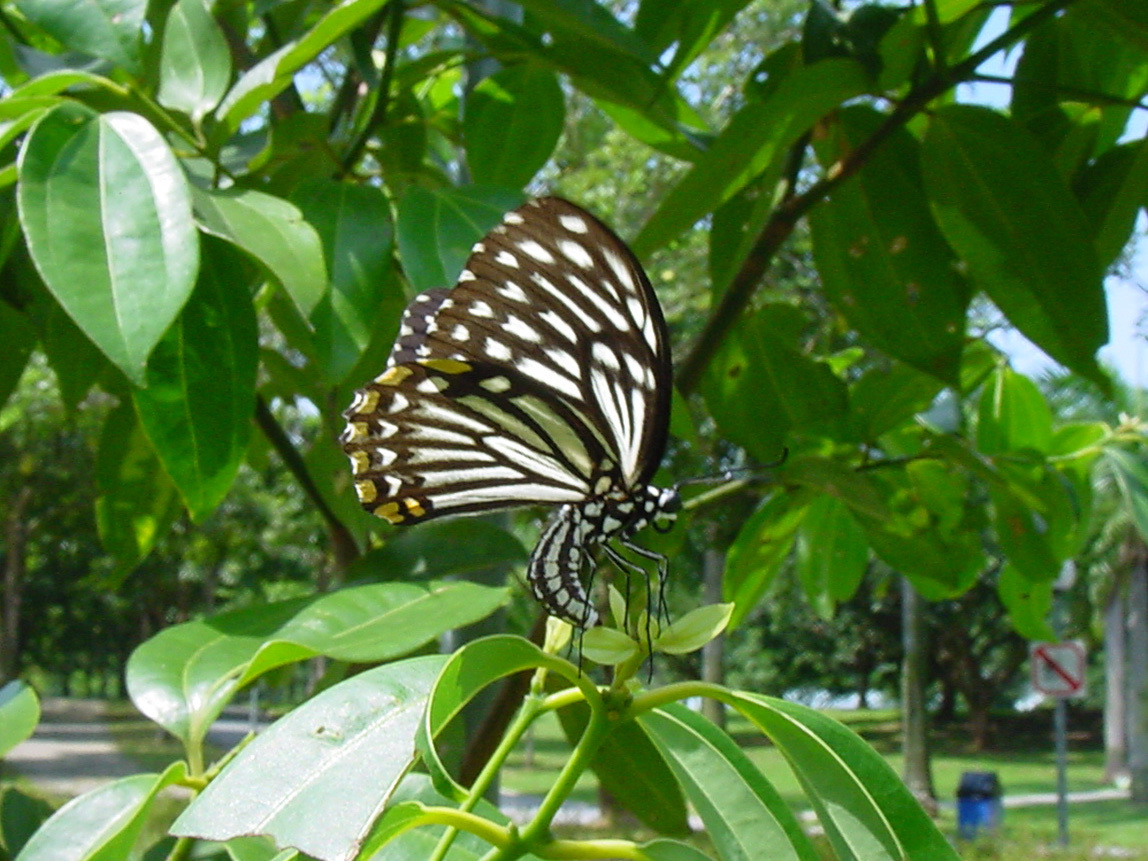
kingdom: Animalia
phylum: Arthropoda
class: Insecta
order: Lepidoptera
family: Papilionidae
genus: Chilasa
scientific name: Chilasa clytia
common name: Common mime
